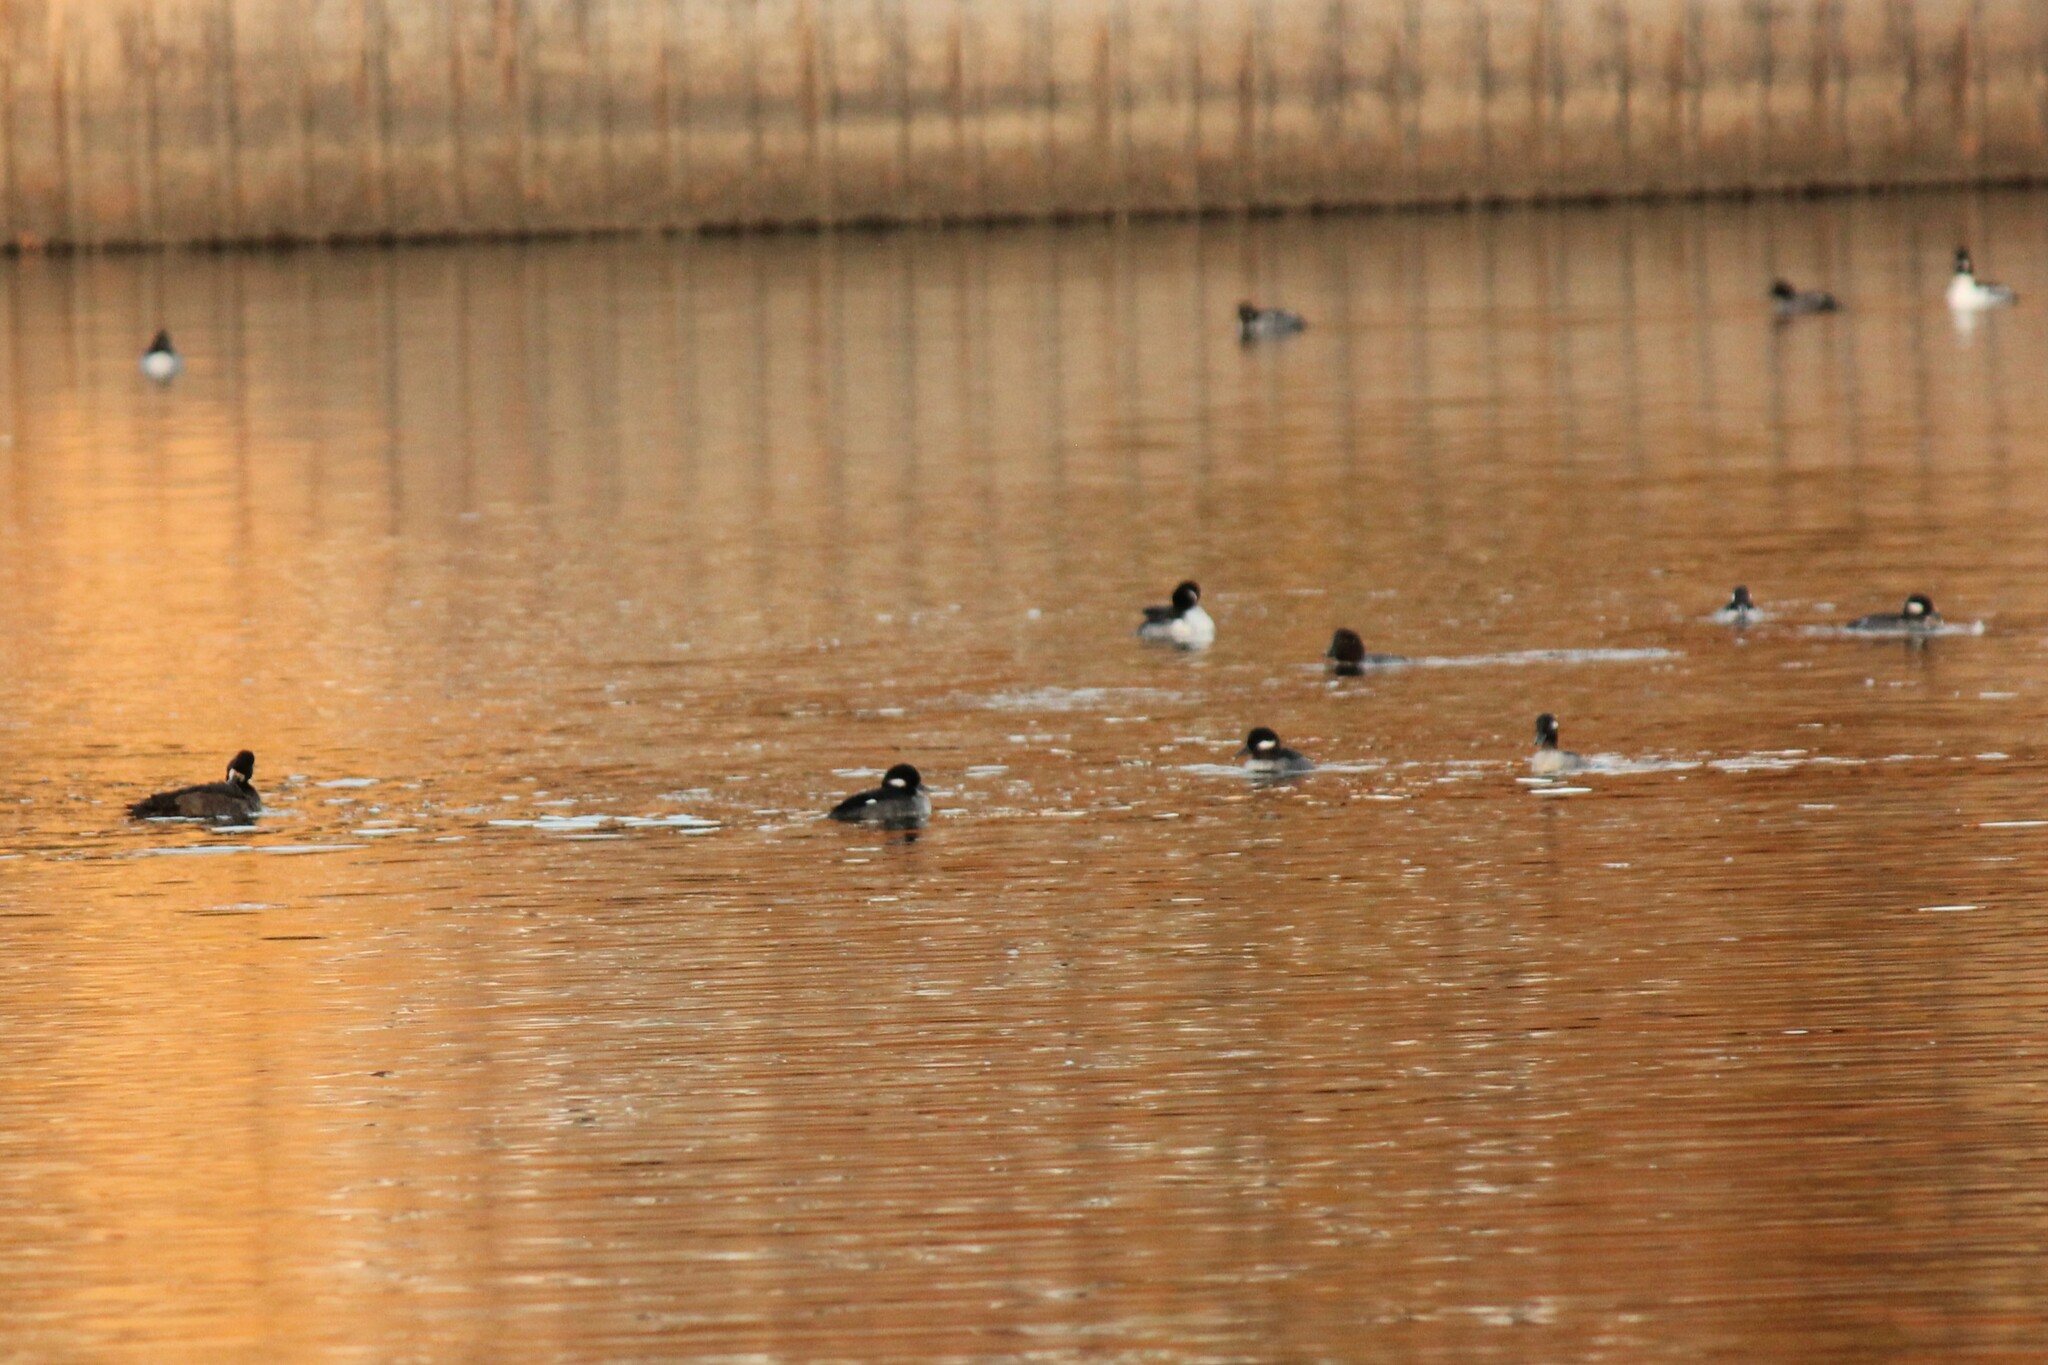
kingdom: Animalia
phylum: Chordata
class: Aves
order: Anseriformes
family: Anatidae
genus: Bucephala
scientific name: Bucephala albeola
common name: Bufflehead
